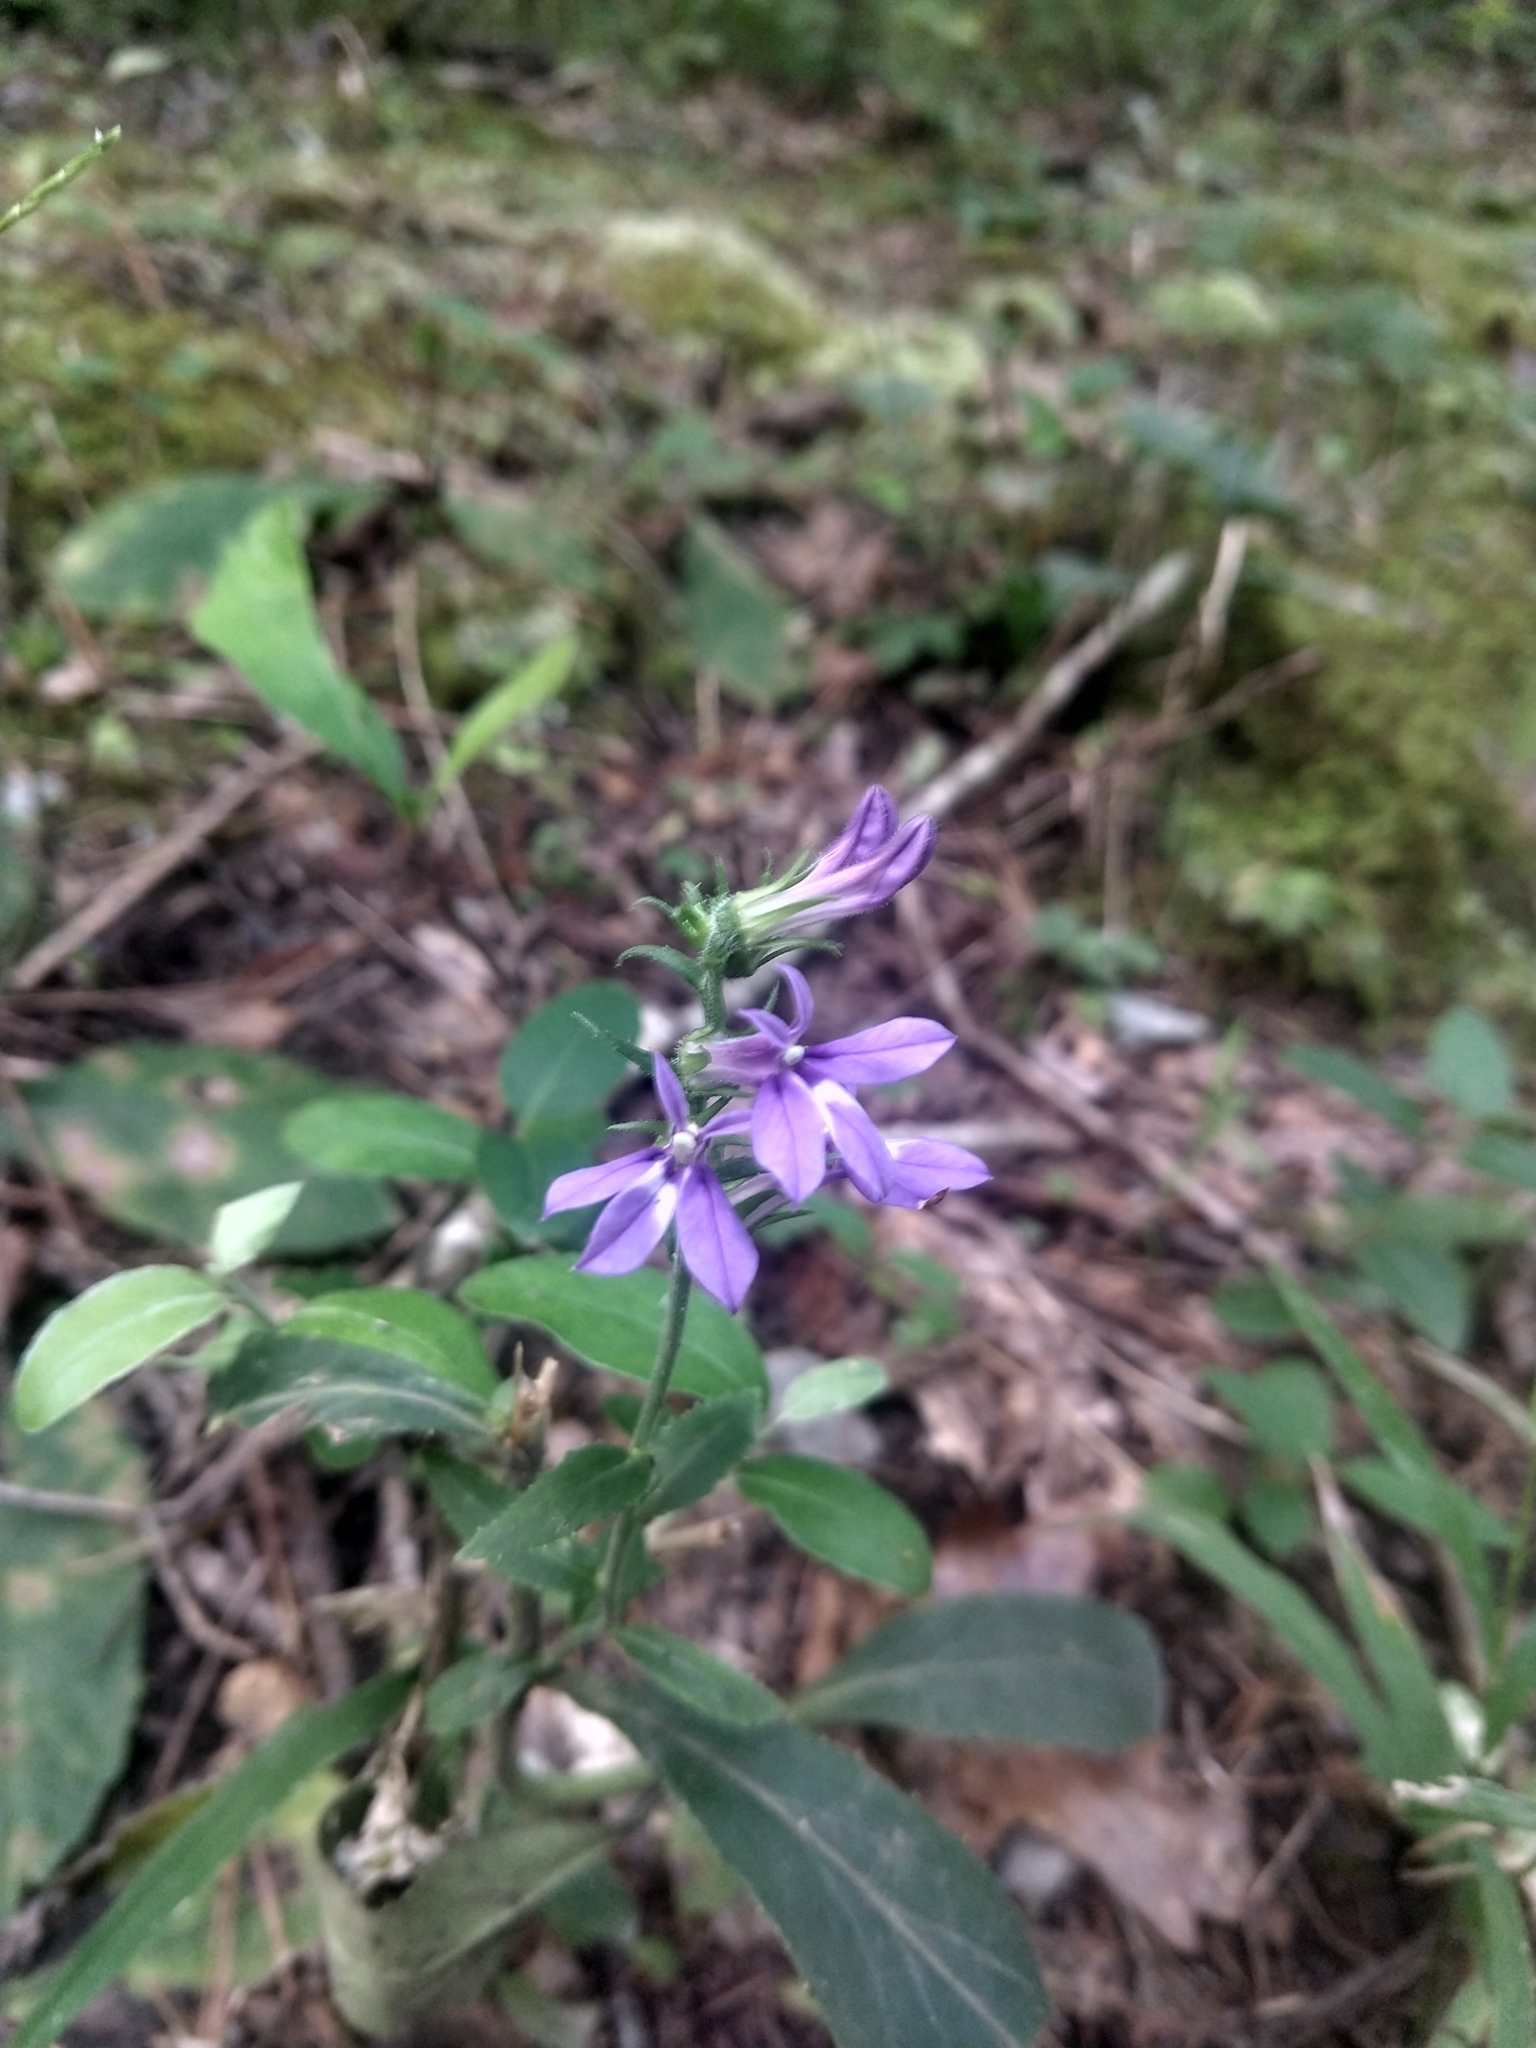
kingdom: Plantae
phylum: Tracheophyta
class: Magnoliopsida
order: Asterales
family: Campanulaceae
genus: Lobelia
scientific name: Lobelia puberula
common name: Purple dewdrop
